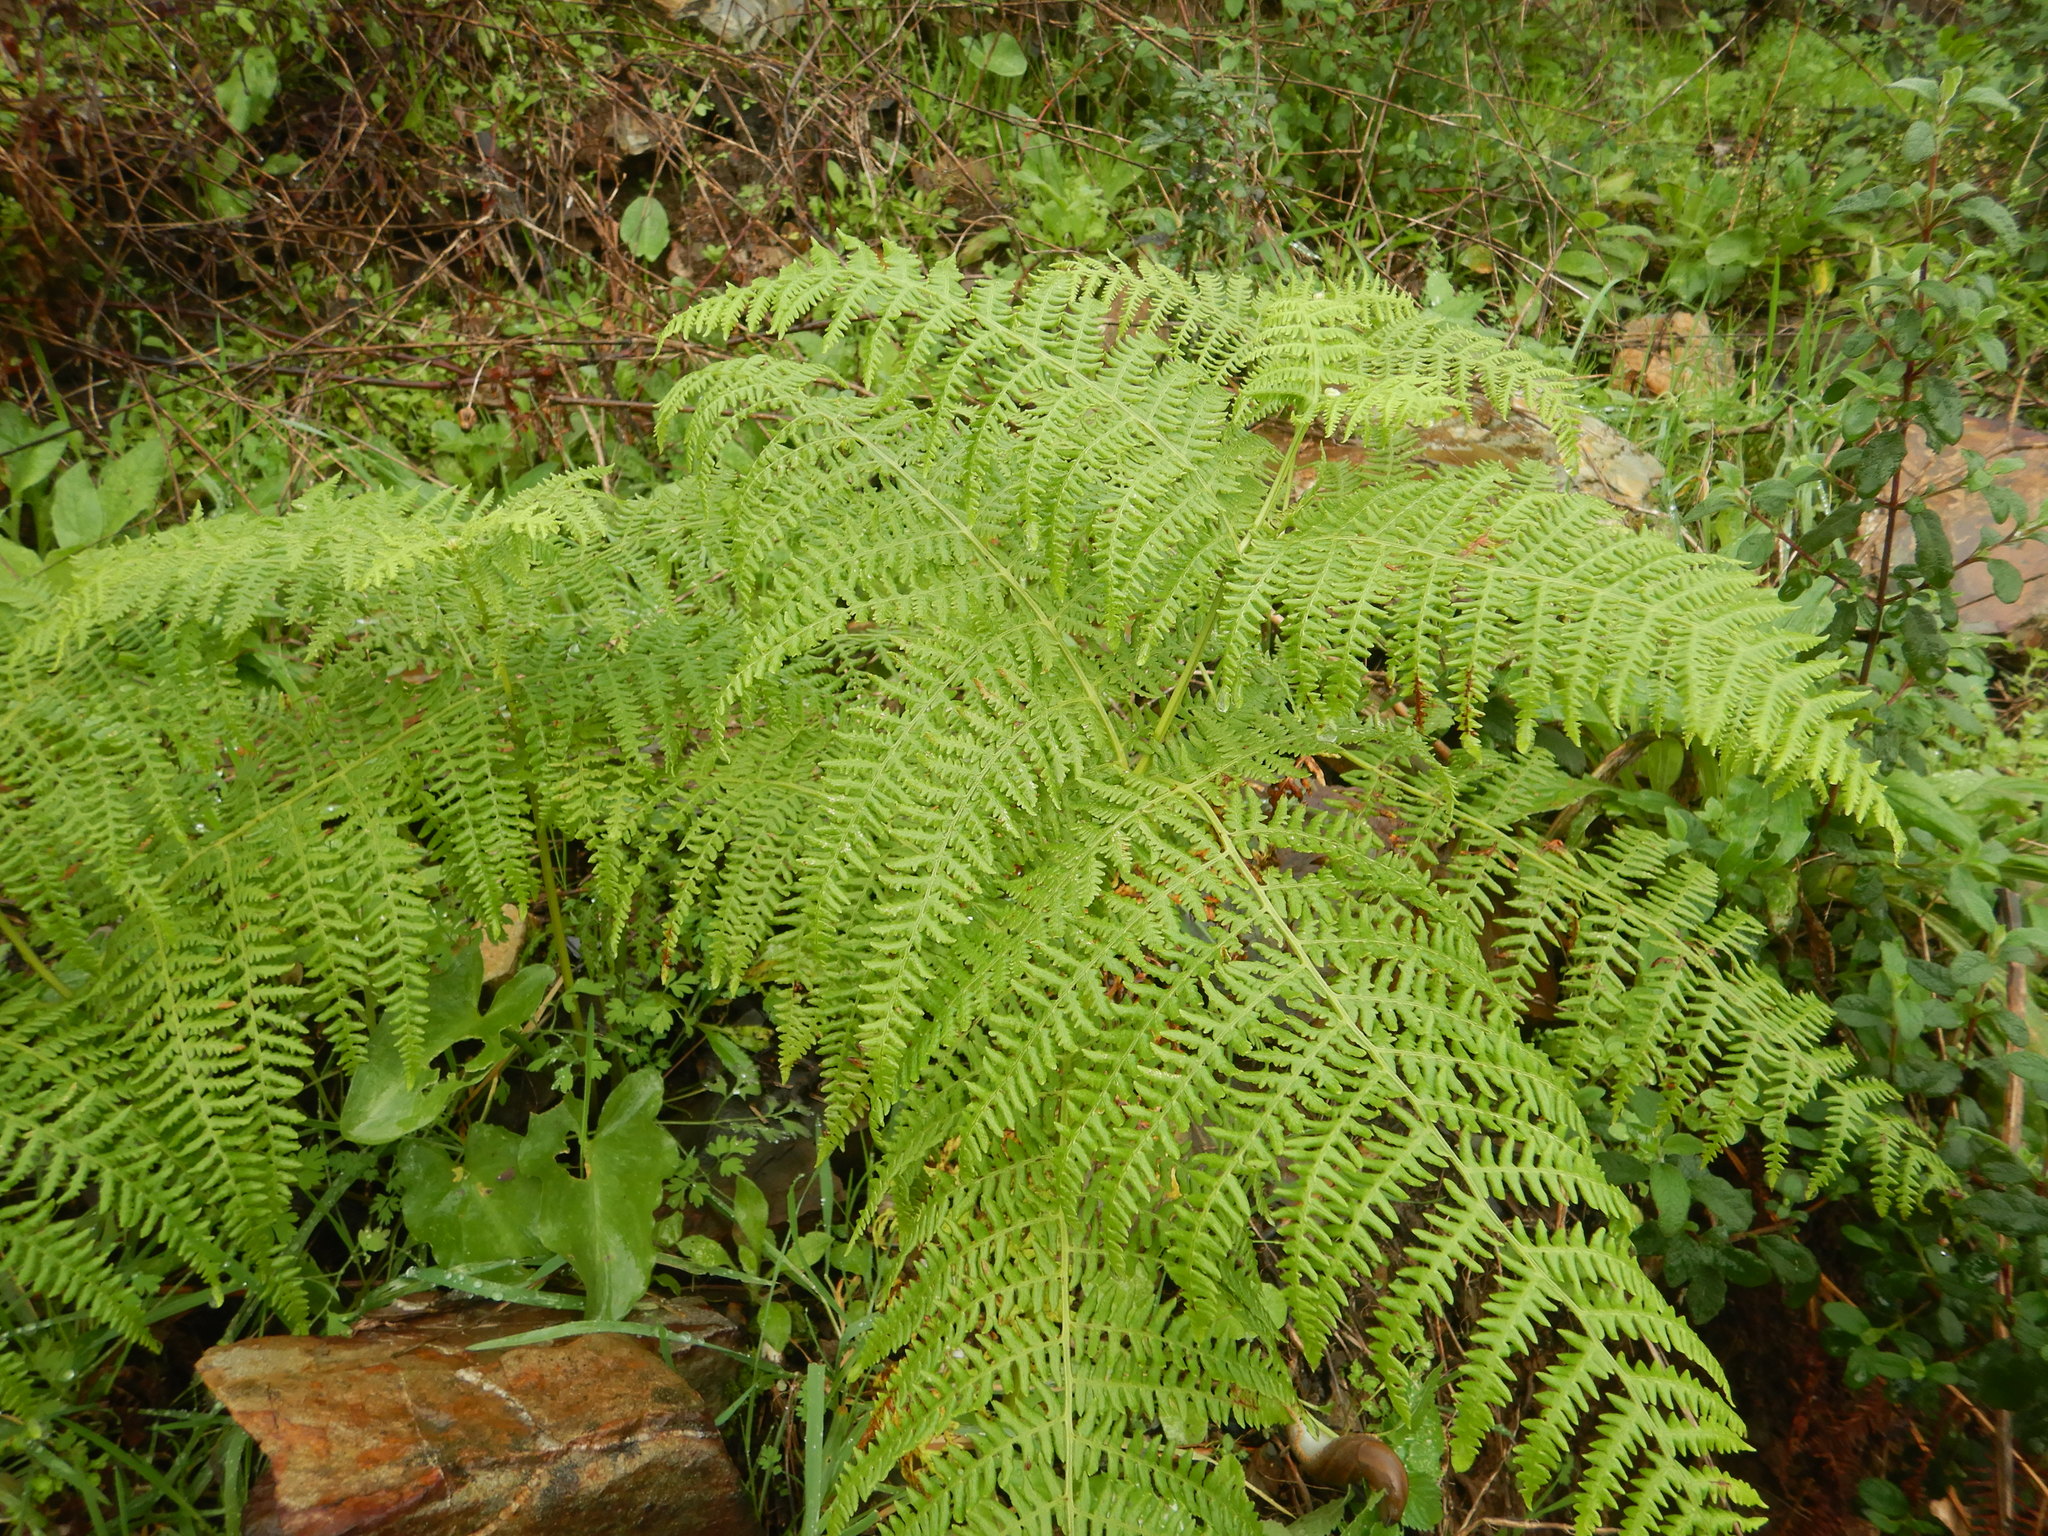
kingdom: Plantae
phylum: Tracheophyta
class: Polypodiopsida
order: Polypodiales
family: Dennstaedtiaceae
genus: Pteridium
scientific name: Pteridium aquilinum
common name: Bracken
